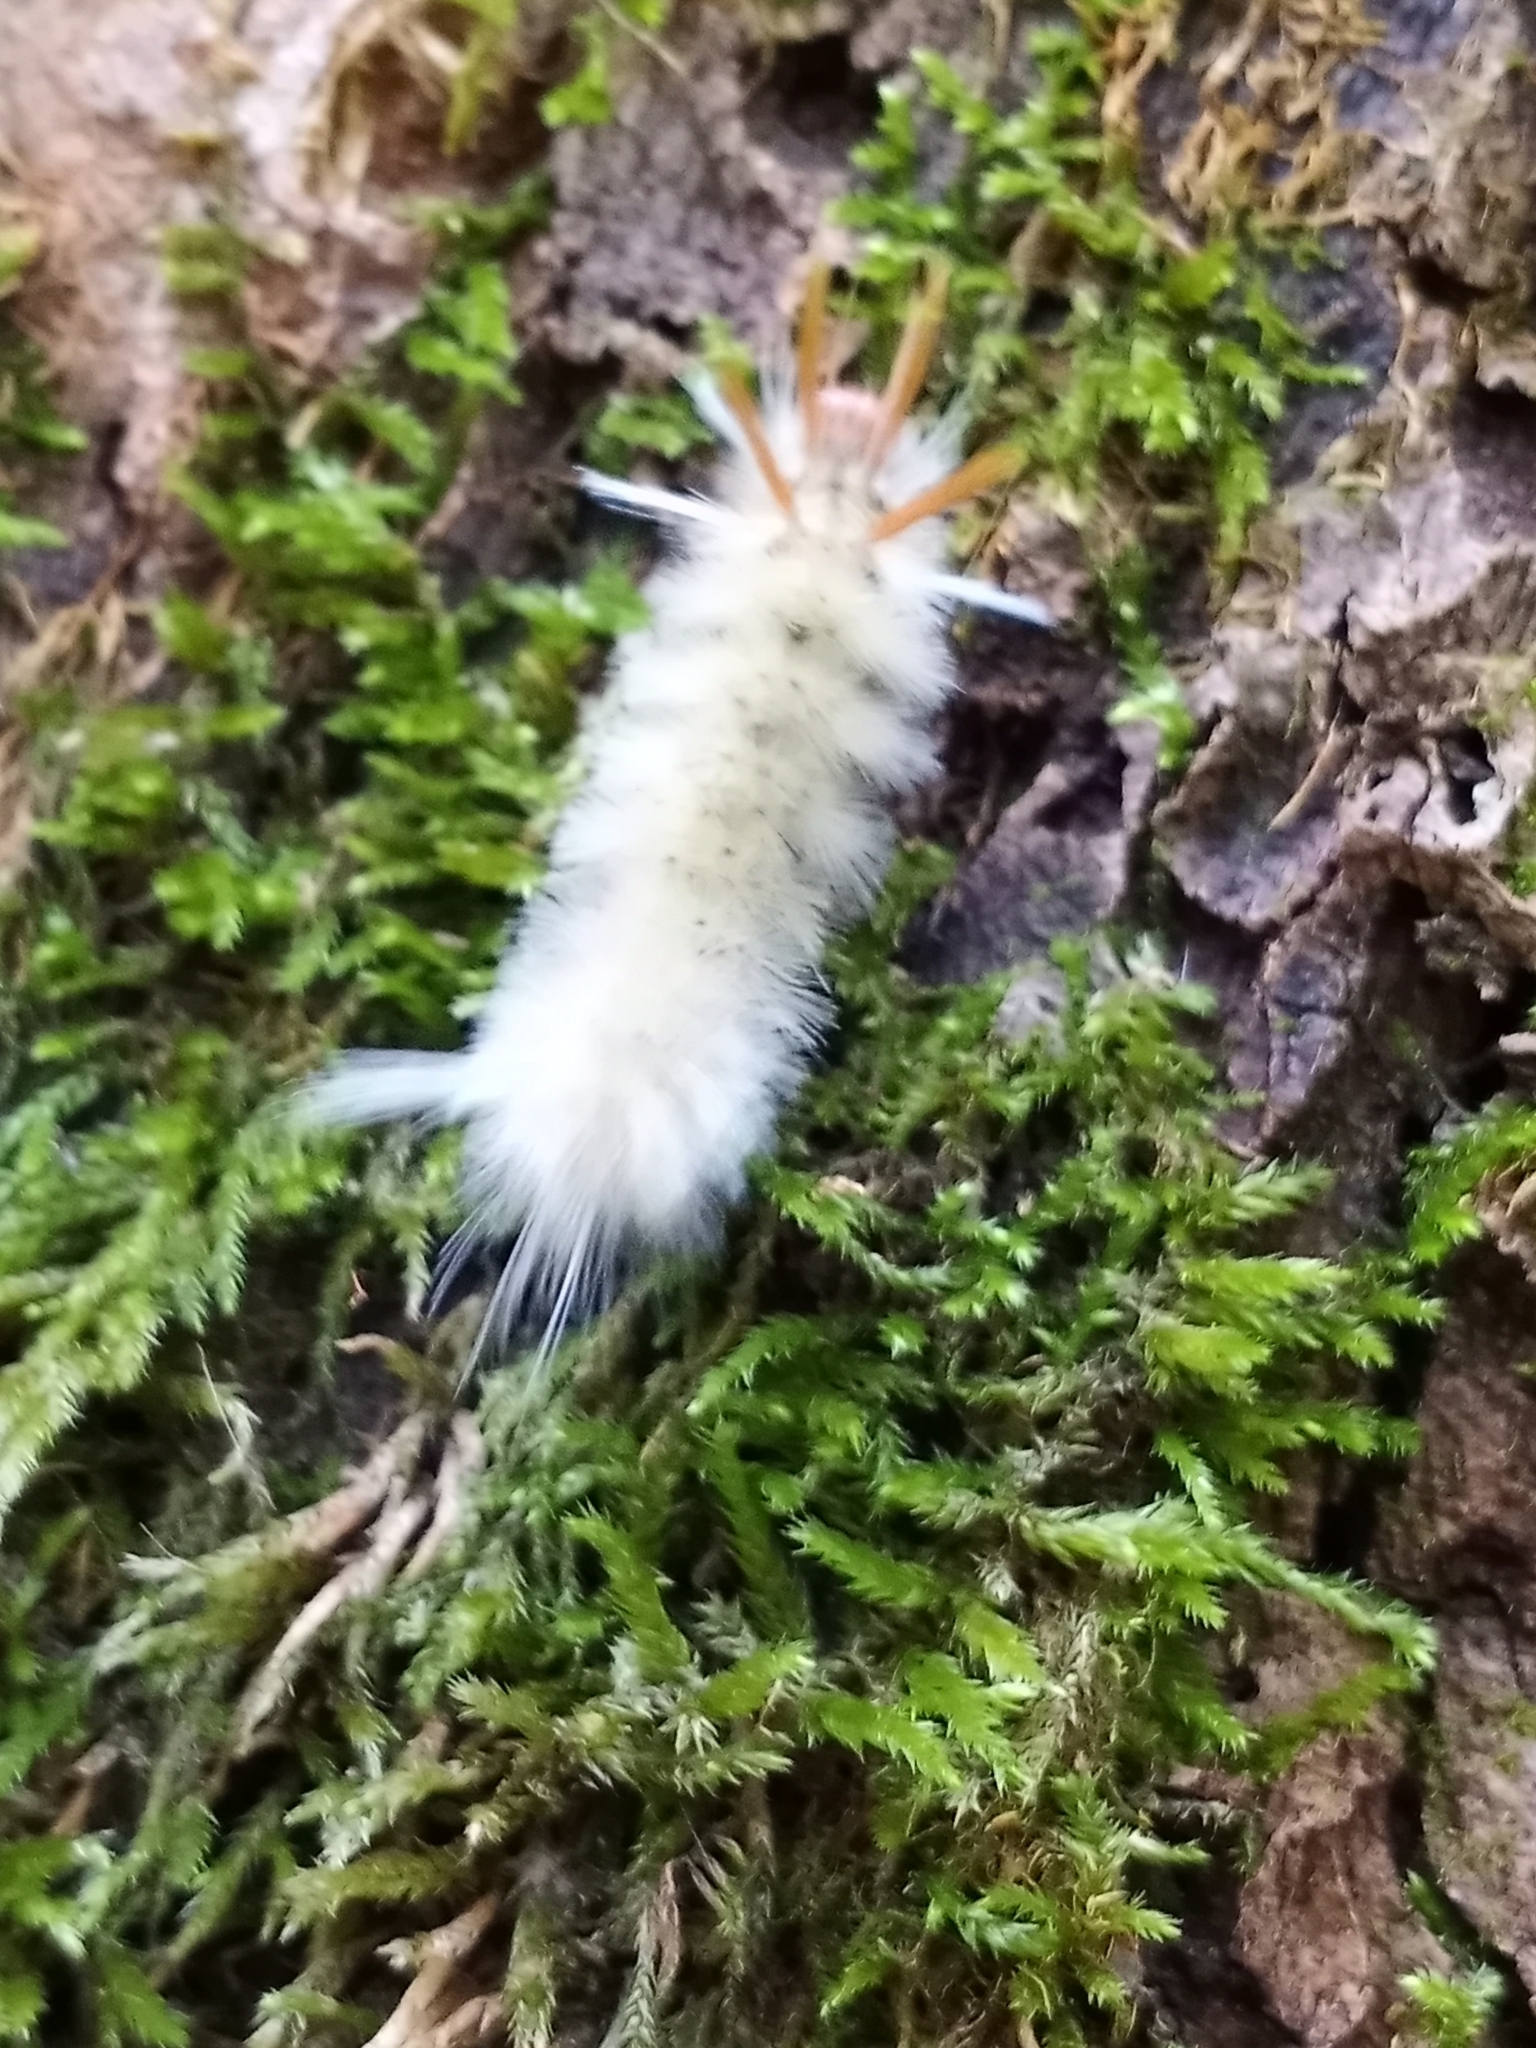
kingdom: Animalia
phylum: Arthropoda
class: Insecta
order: Lepidoptera
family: Erebidae
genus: Halysidota
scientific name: Halysidota harrisii
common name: Sycamore tussock moth
